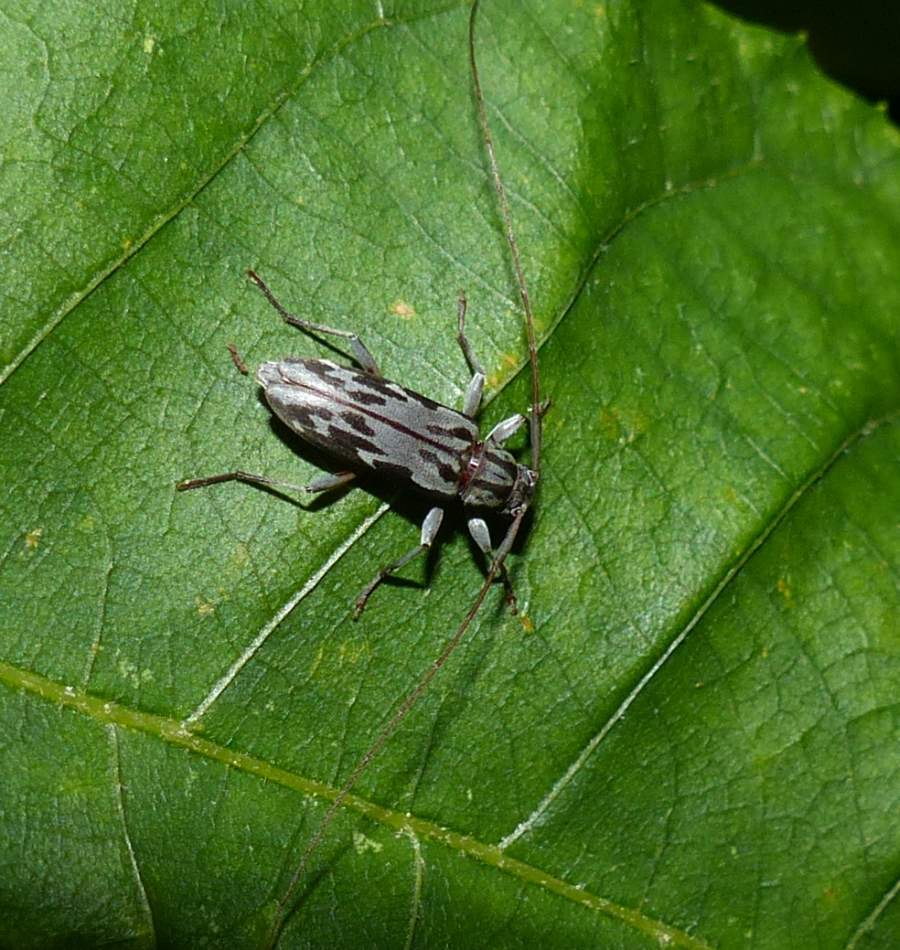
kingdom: Animalia
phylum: Arthropoda
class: Insecta
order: Coleoptera
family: Cerambycidae
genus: Lepturges
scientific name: Lepturges angulatus
